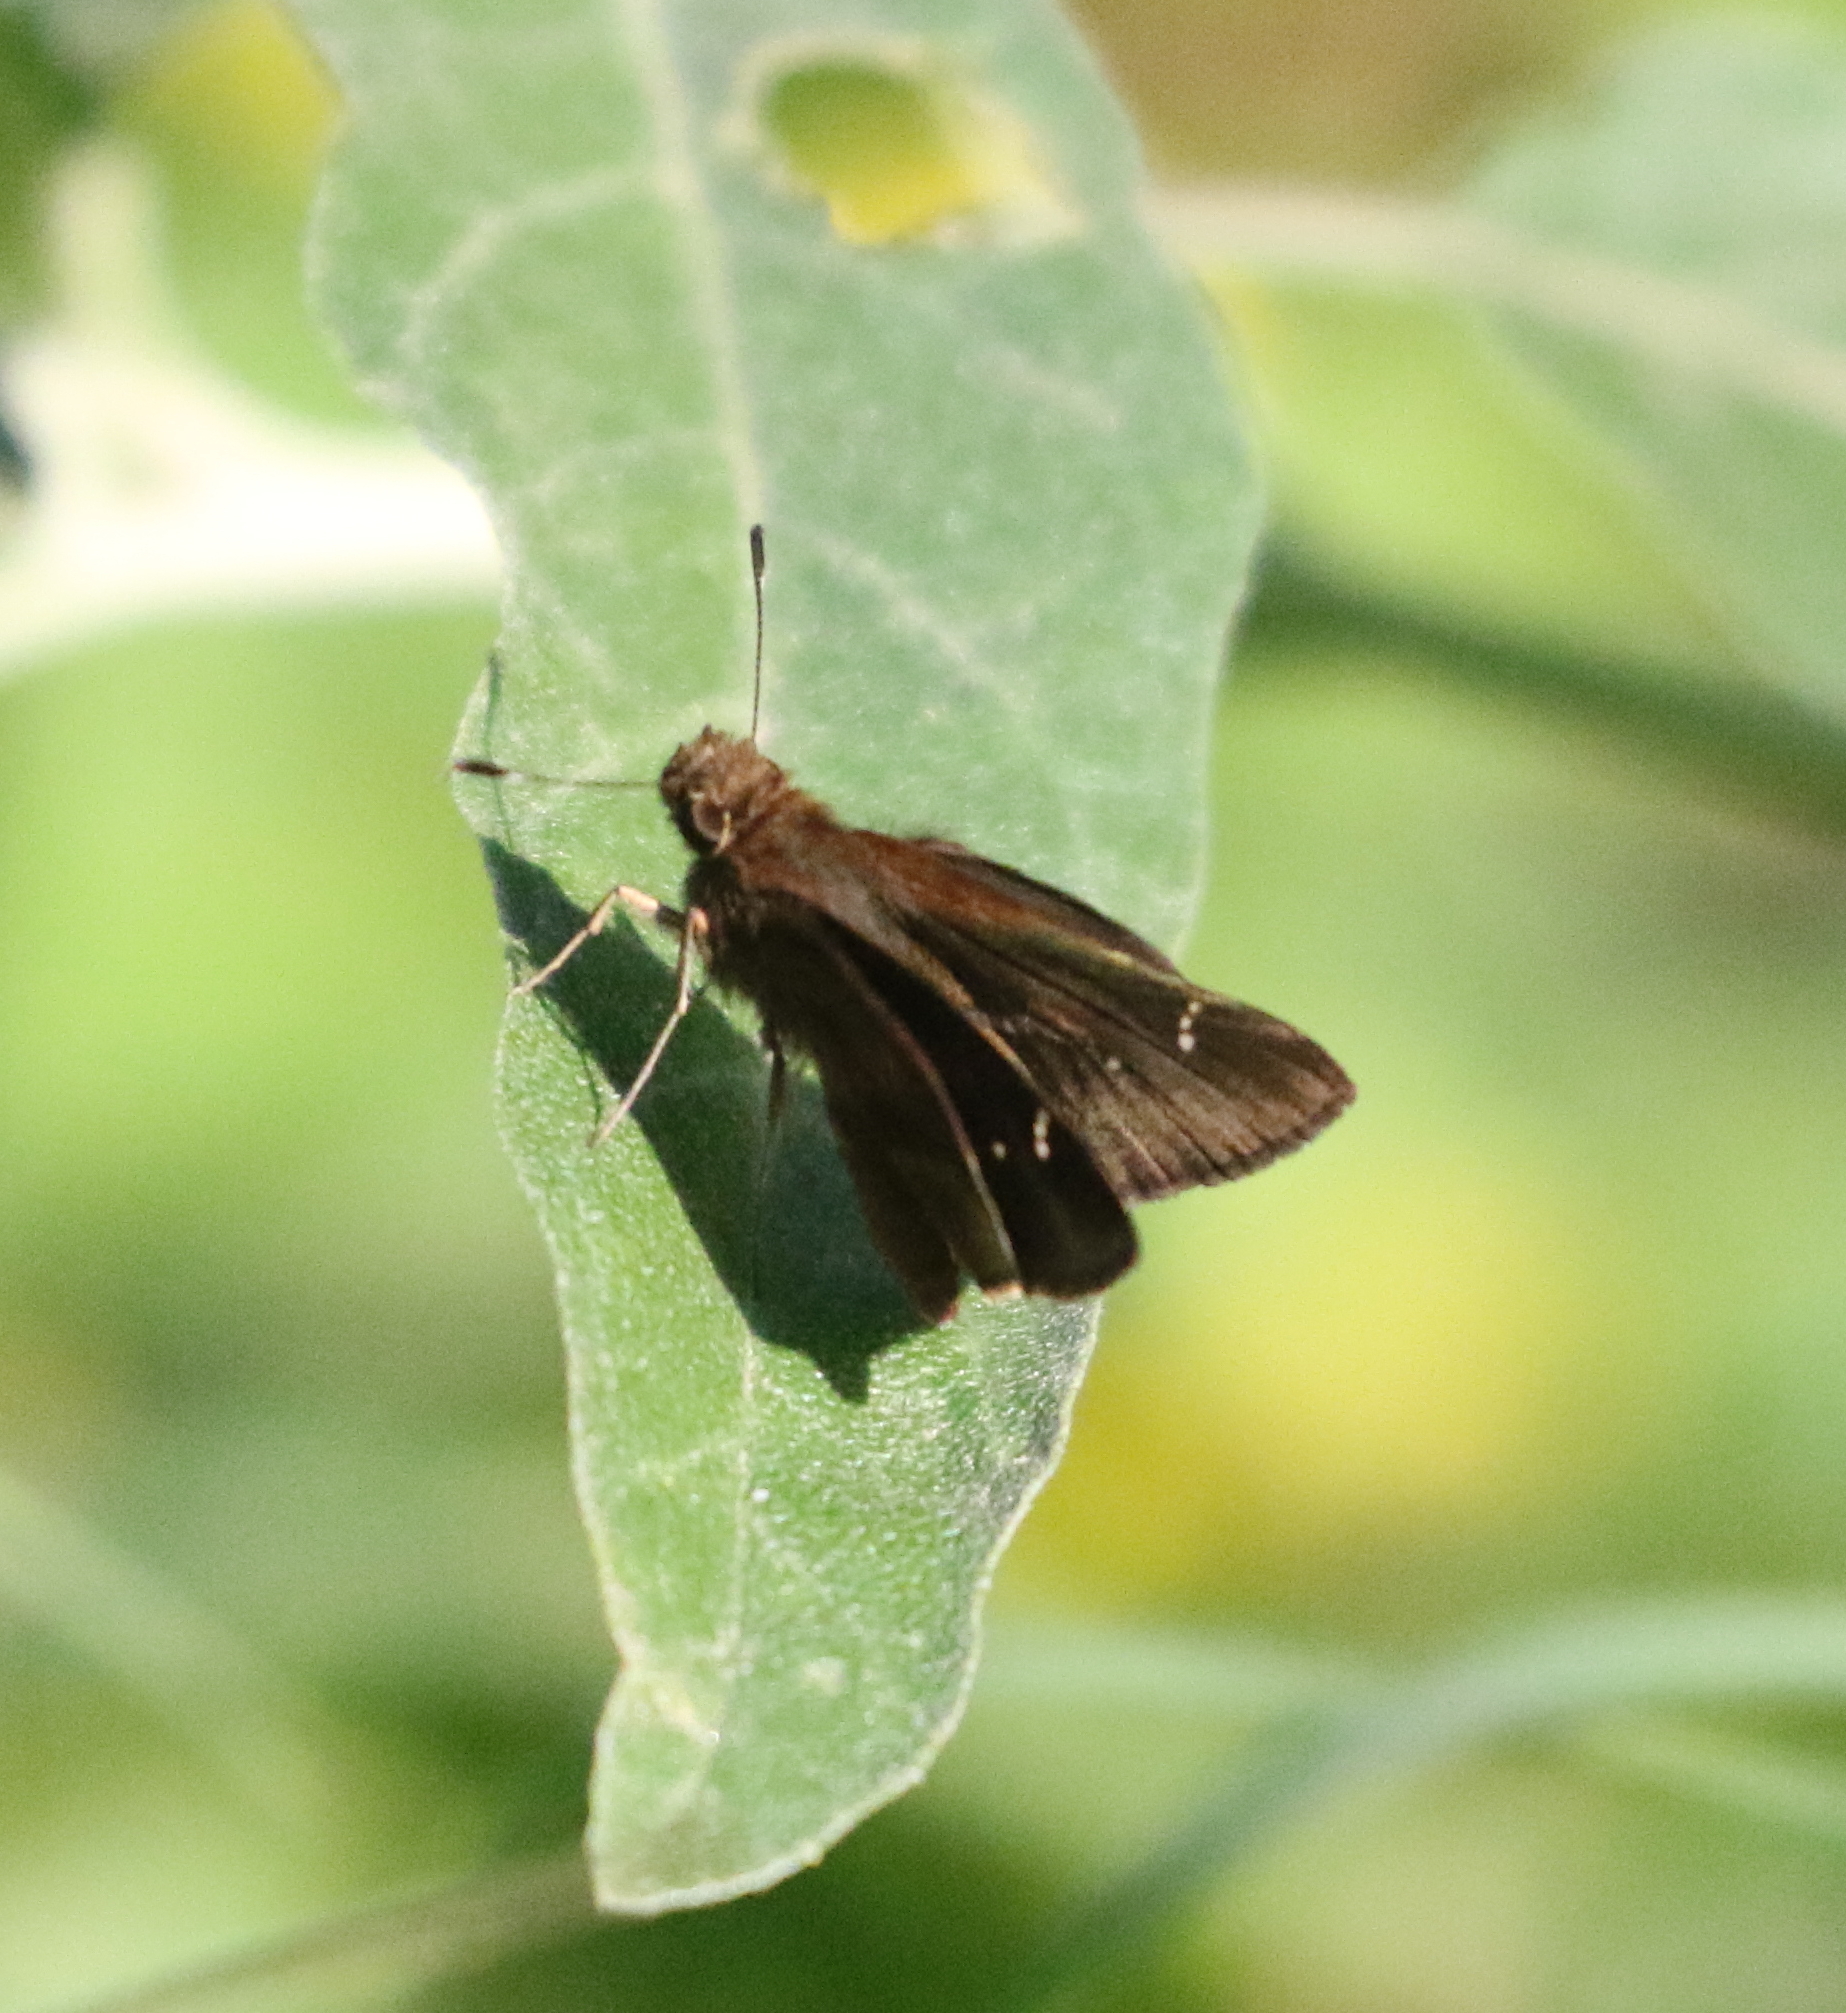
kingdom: Animalia
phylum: Arthropoda
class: Insecta
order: Lepidoptera
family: Hesperiidae
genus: Lerema
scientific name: Lerema accius
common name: Clouded skipper
